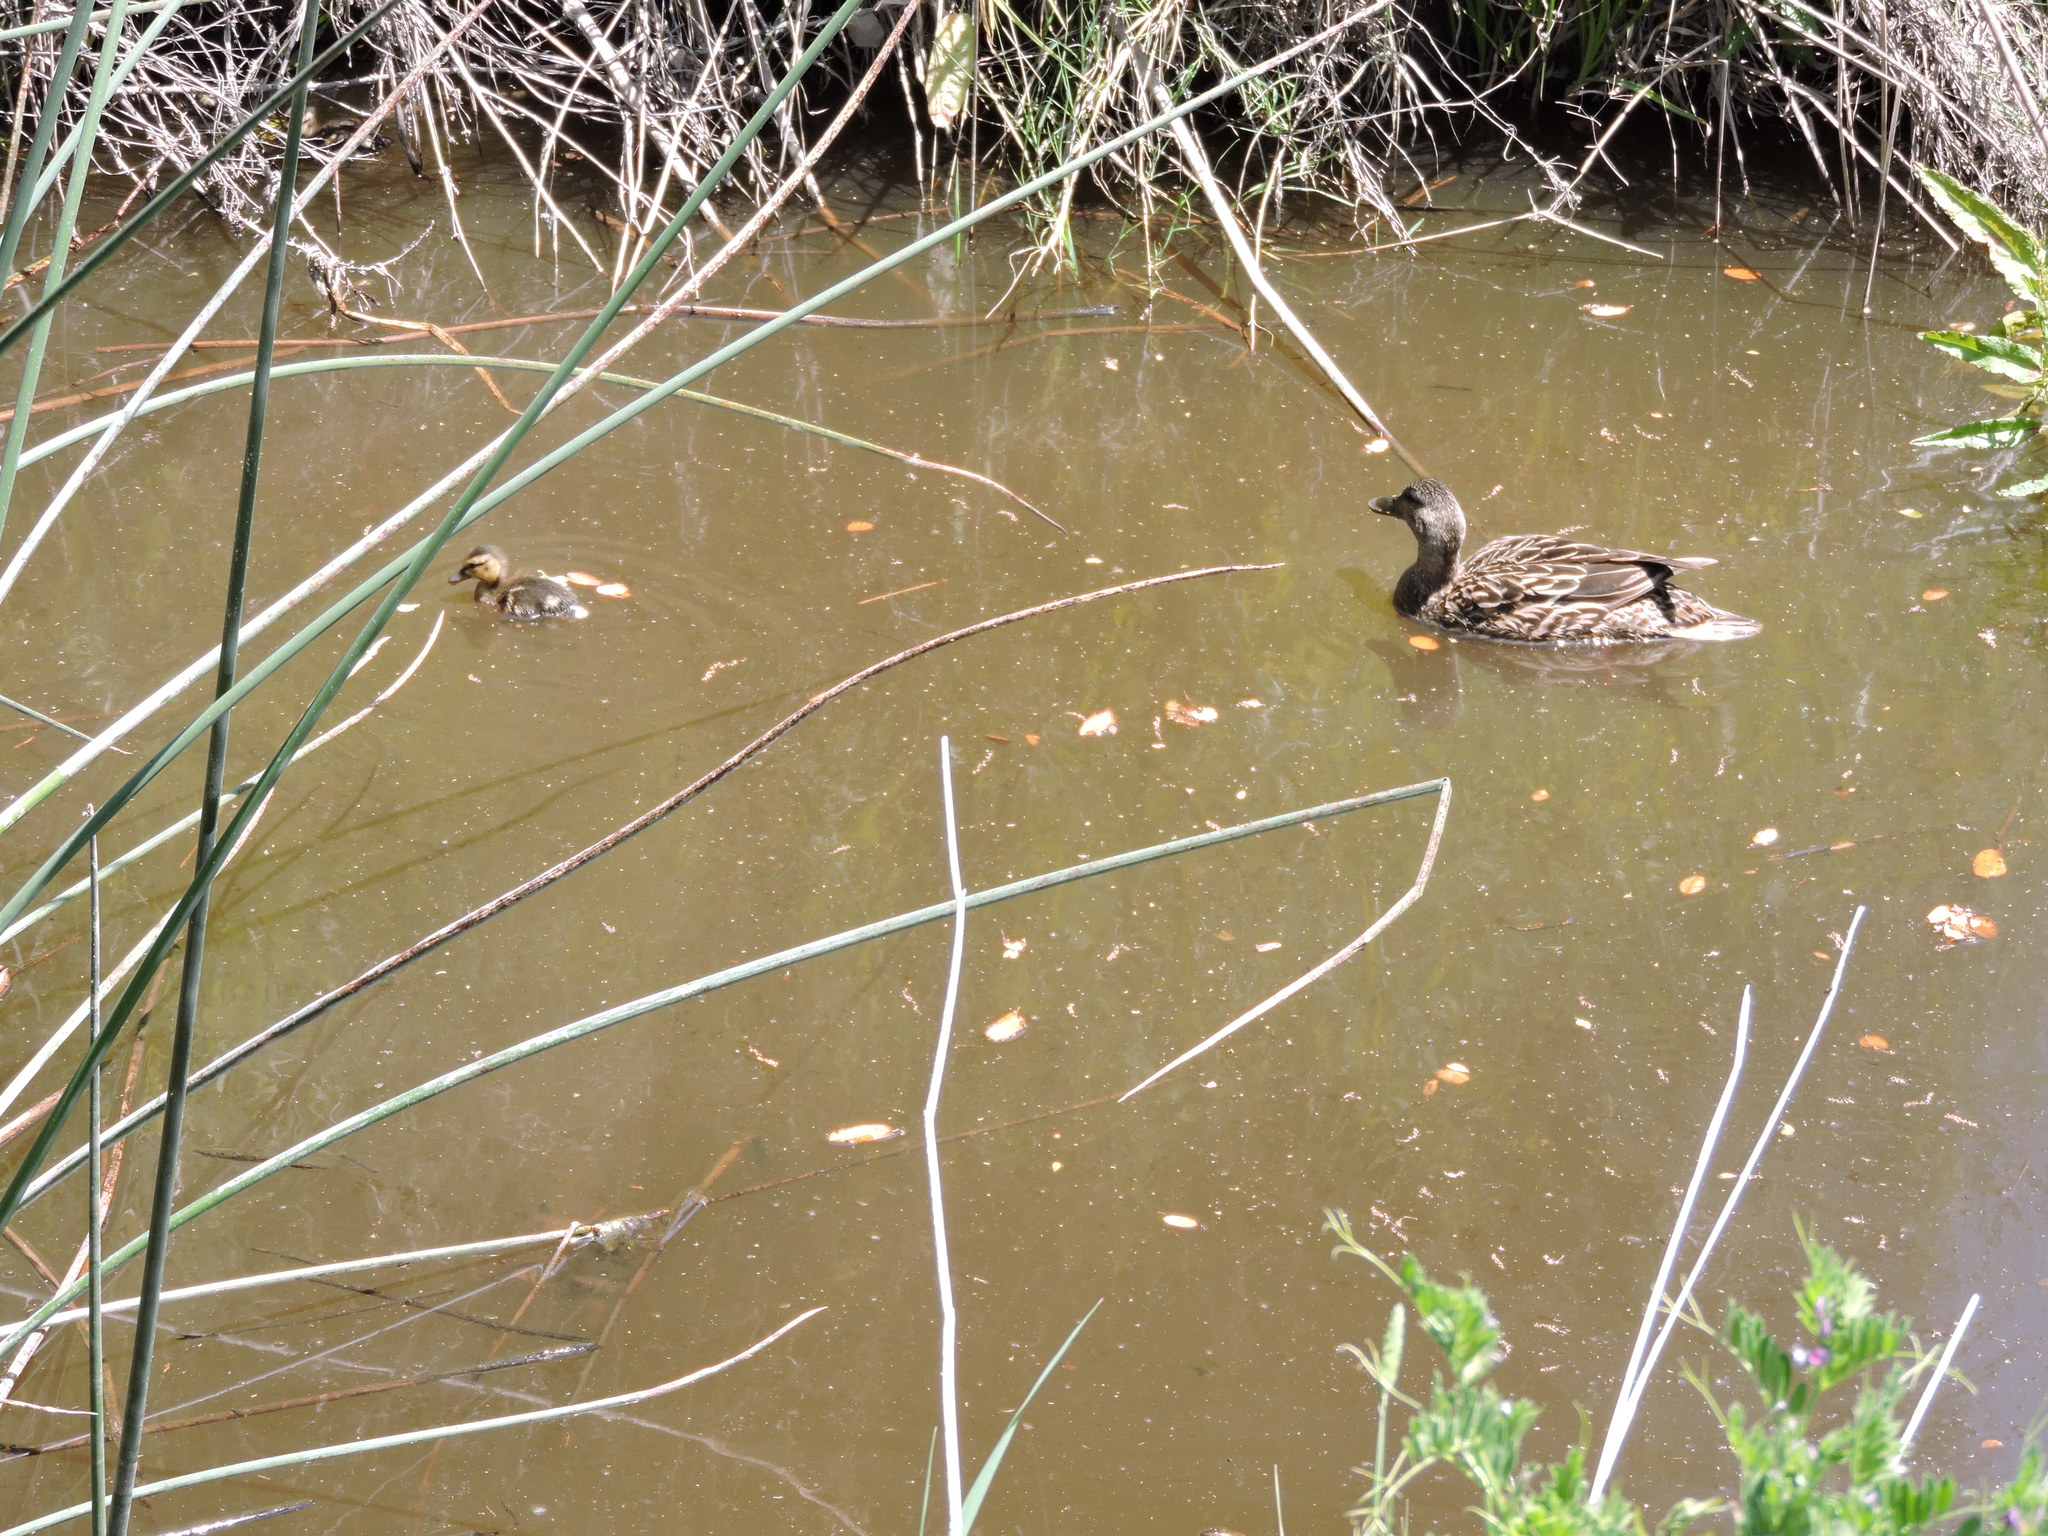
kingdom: Animalia
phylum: Chordata
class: Aves
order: Anseriformes
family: Anatidae
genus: Anas
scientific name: Anas platyrhynchos
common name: Mallard
